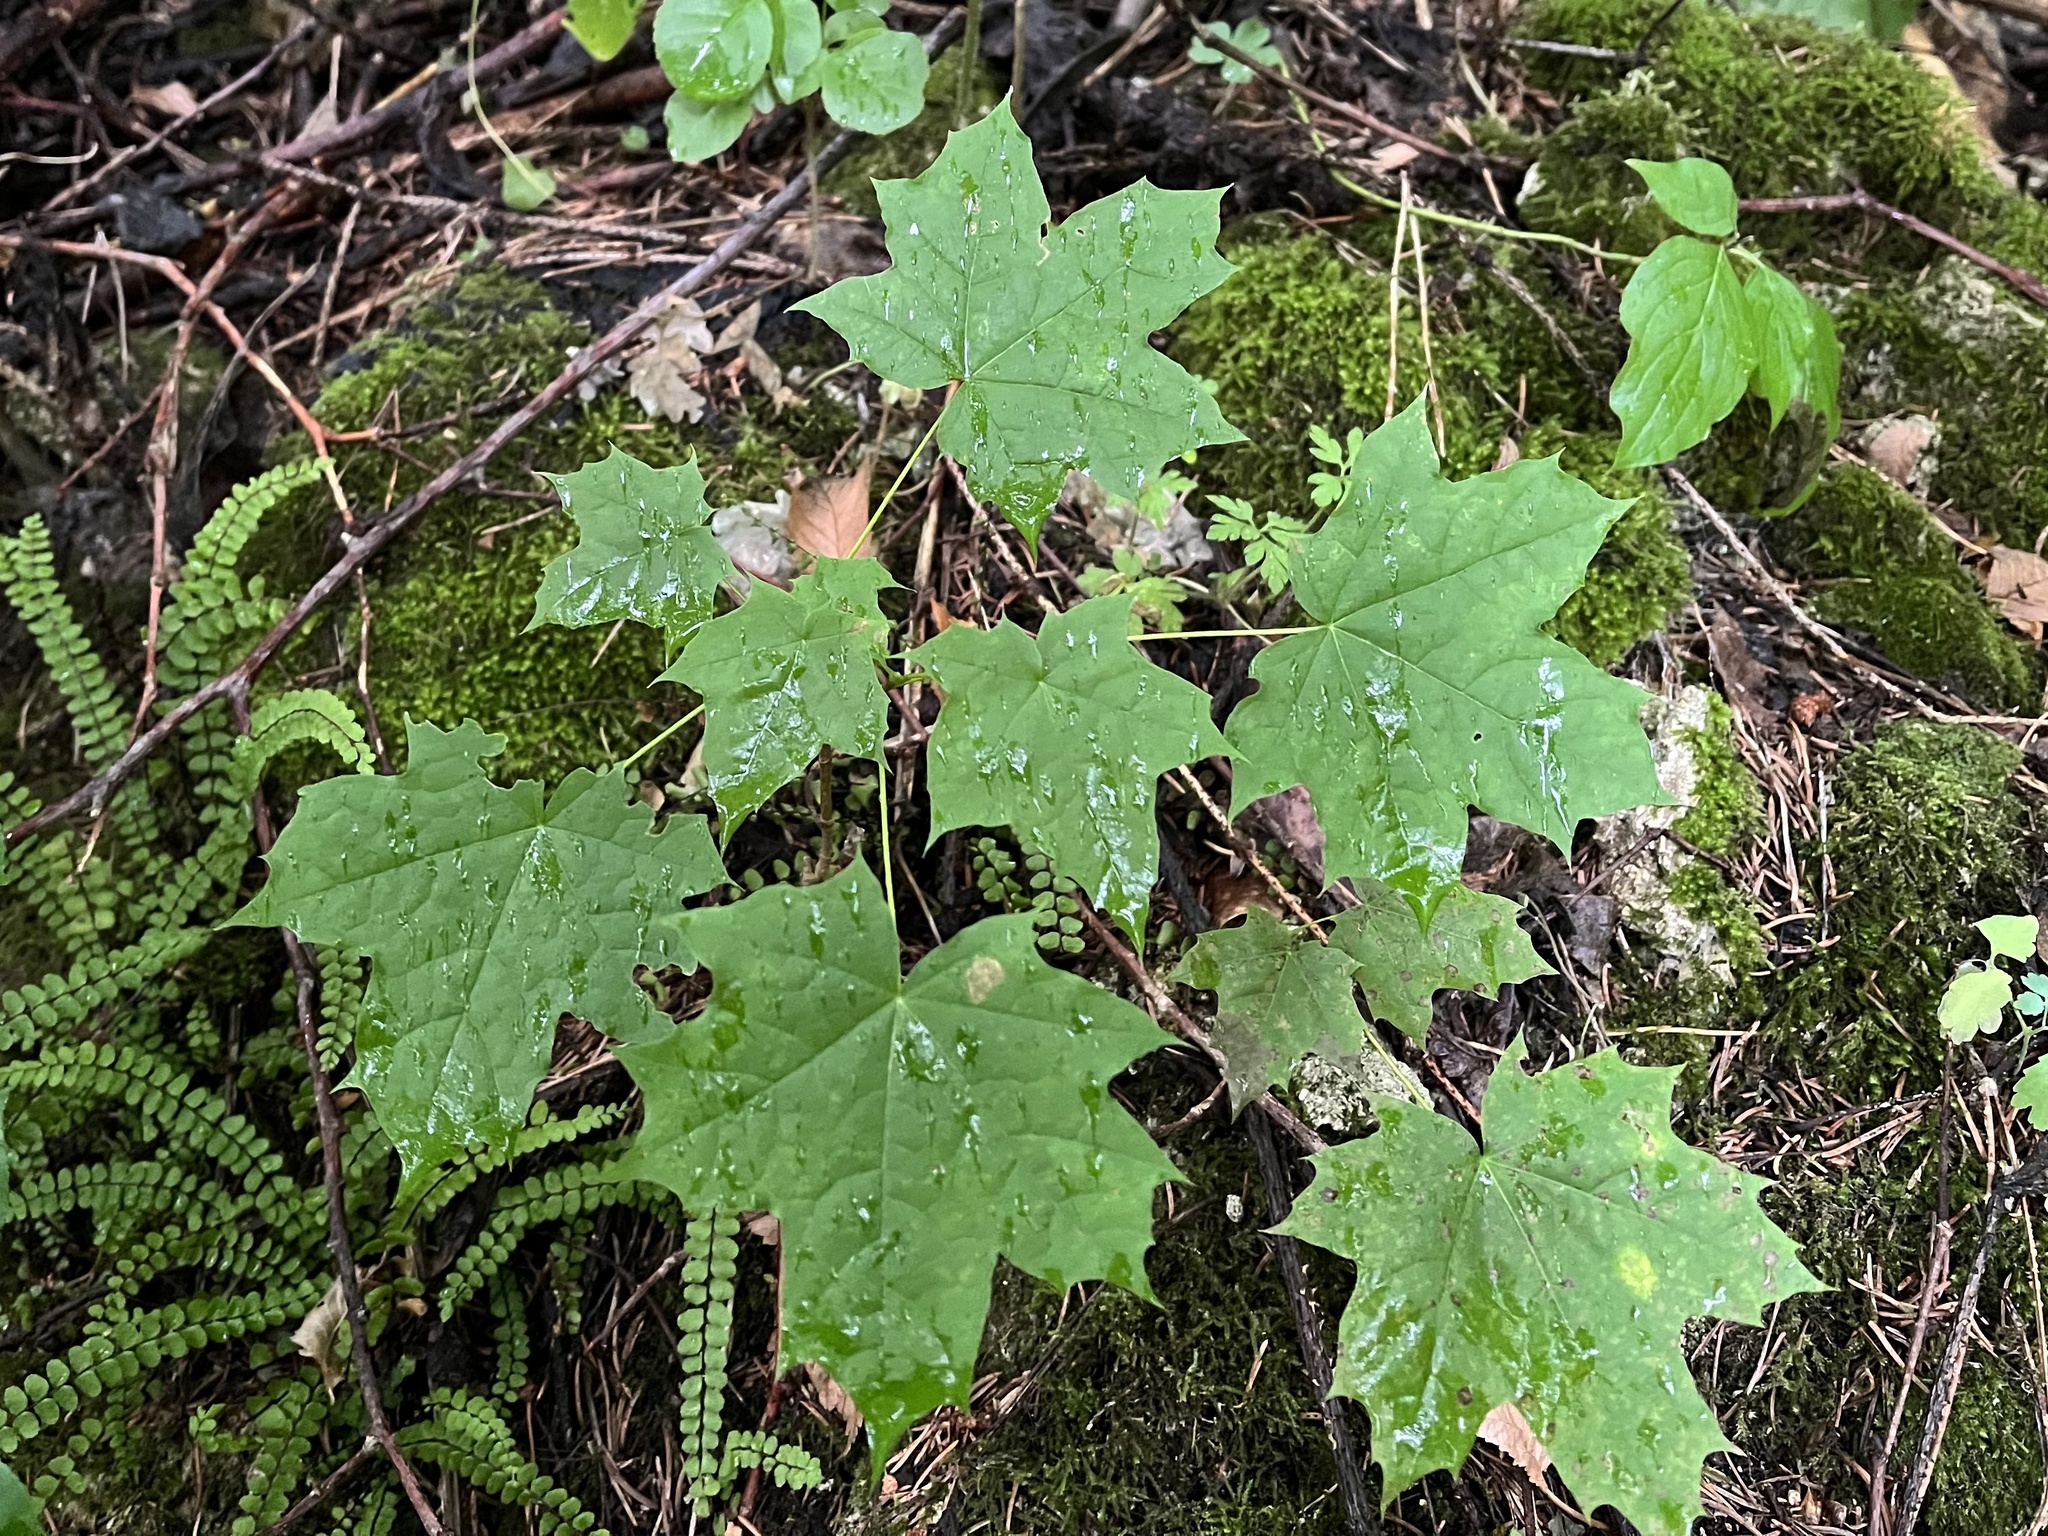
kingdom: Plantae
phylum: Tracheophyta
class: Magnoliopsida
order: Sapindales
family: Sapindaceae
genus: Acer
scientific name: Acer platanoides
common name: Norway maple
